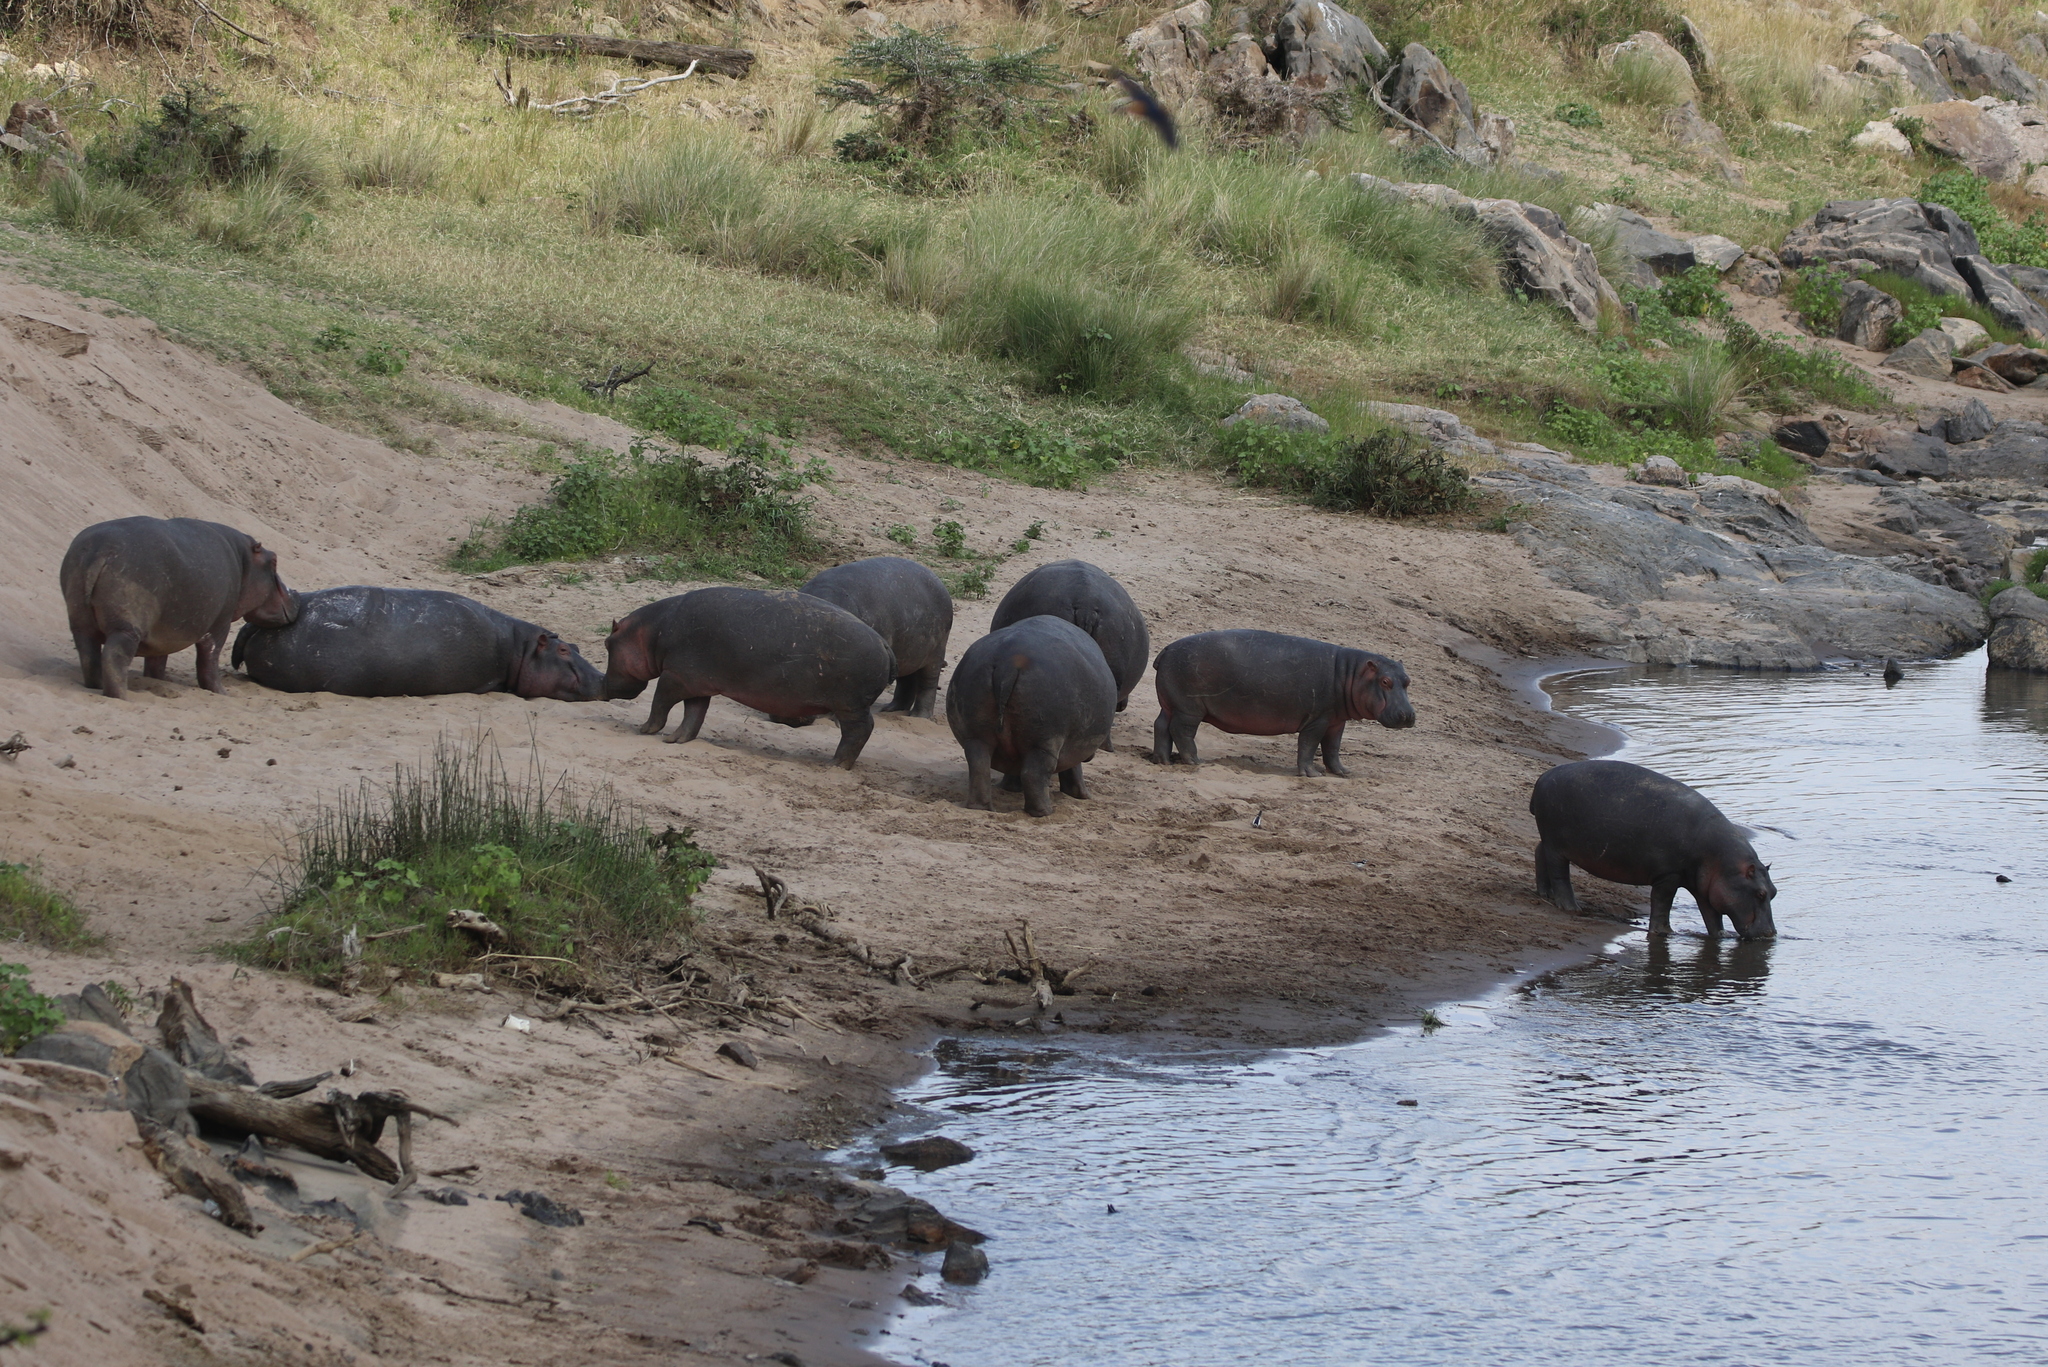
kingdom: Animalia
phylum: Chordata
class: Mammalia
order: Artiodactyla
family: Hippopotamidae
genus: Hippopotamus
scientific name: Hippopotamus amphibius
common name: Common hippopotamus
